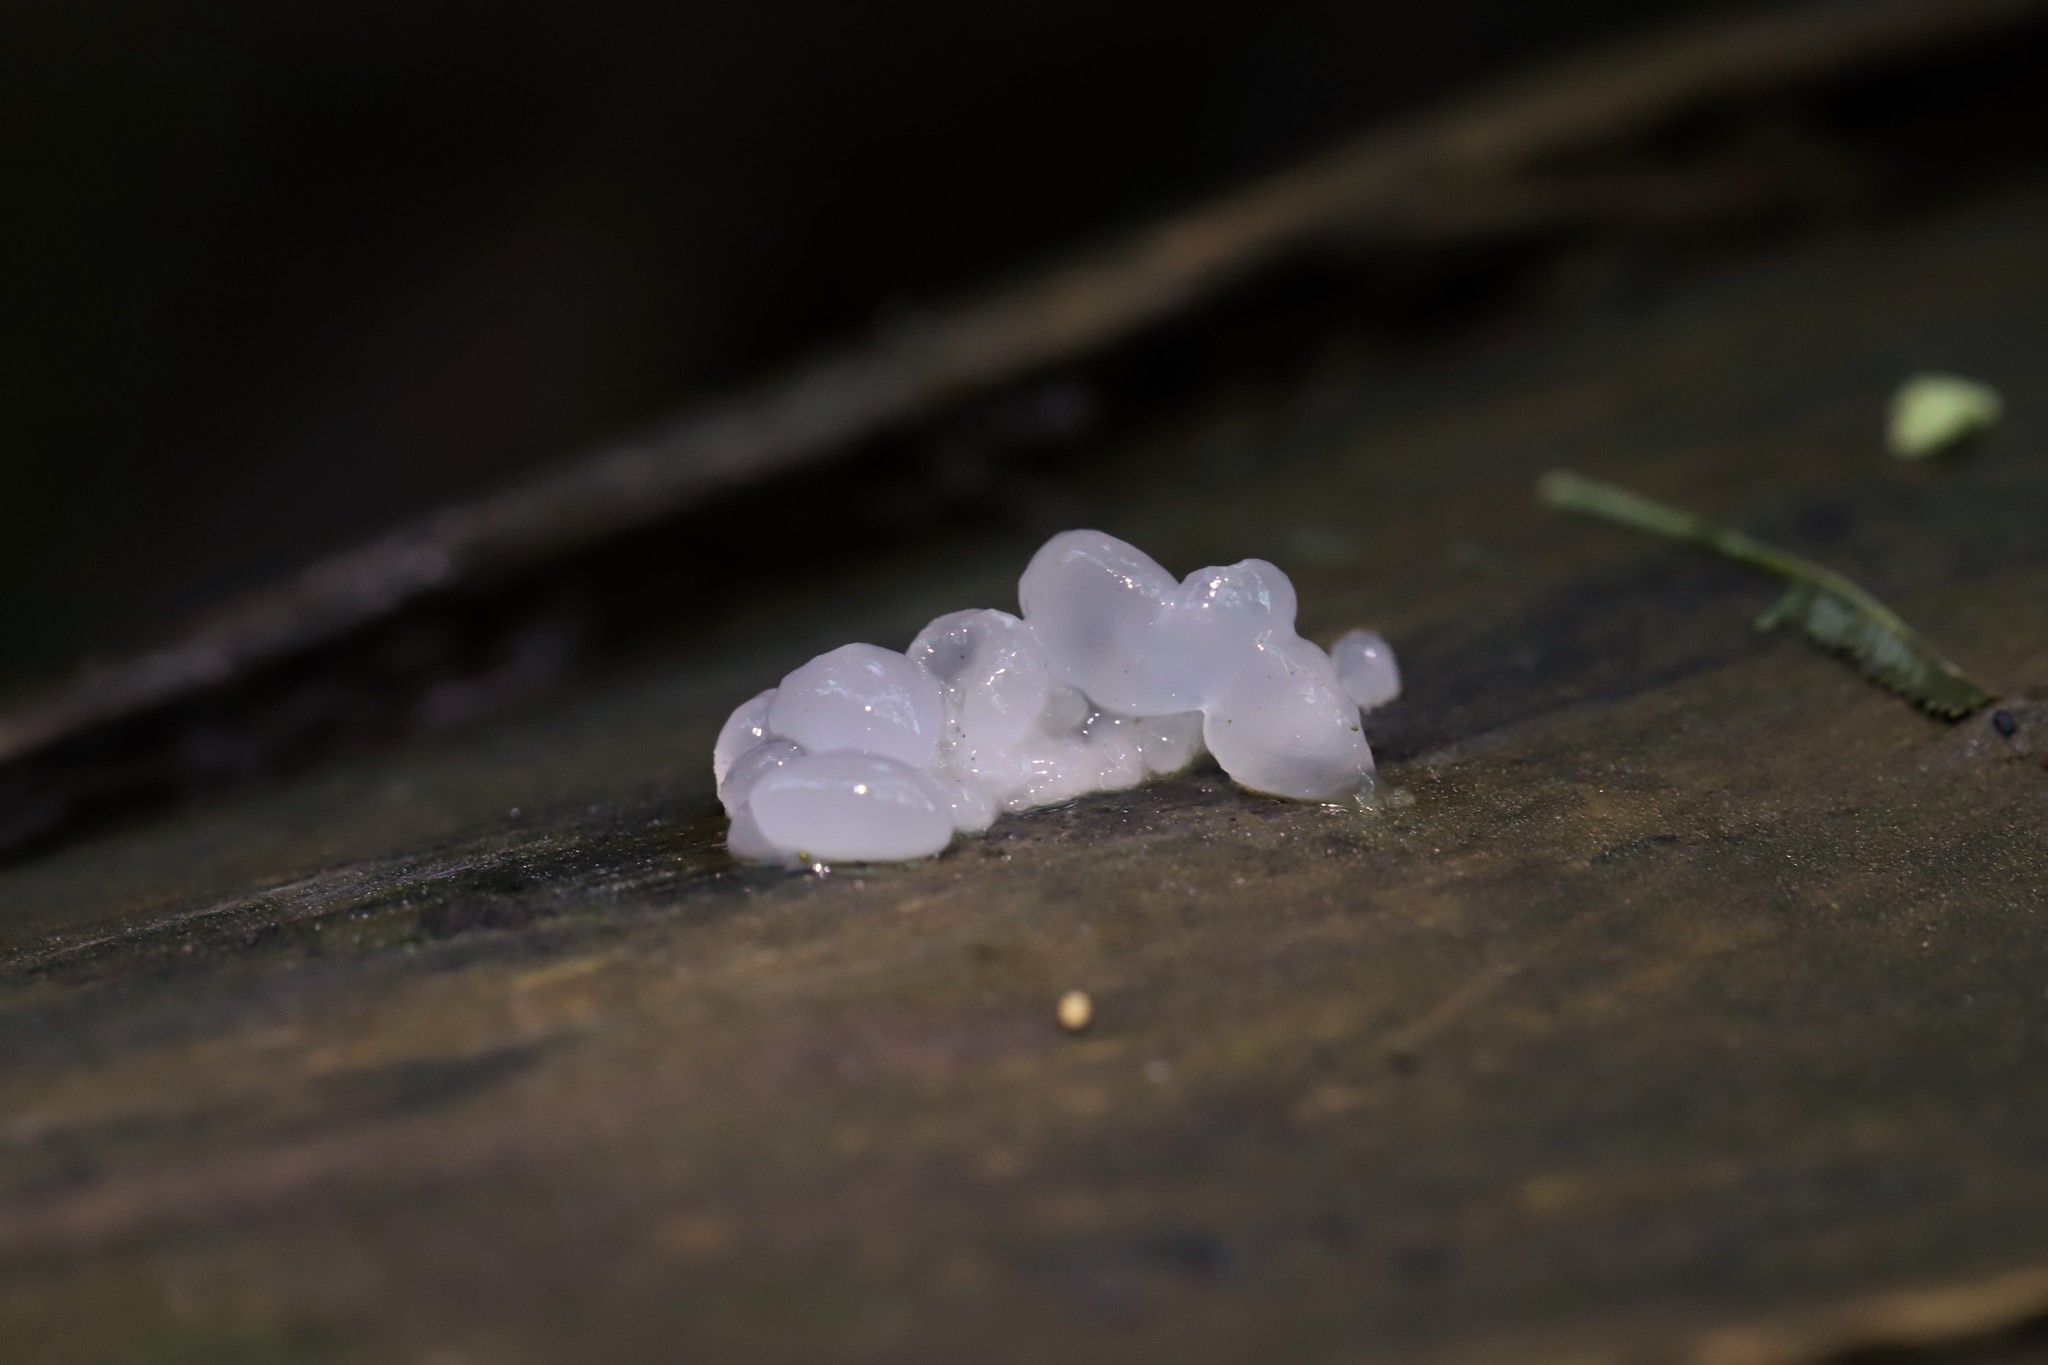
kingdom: Fungi
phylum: Basidiomycota
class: Tremellomycetes
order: Tremellales
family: Tremellaceae
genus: Tremella
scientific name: Tremella fuciformis
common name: Snow fungus
